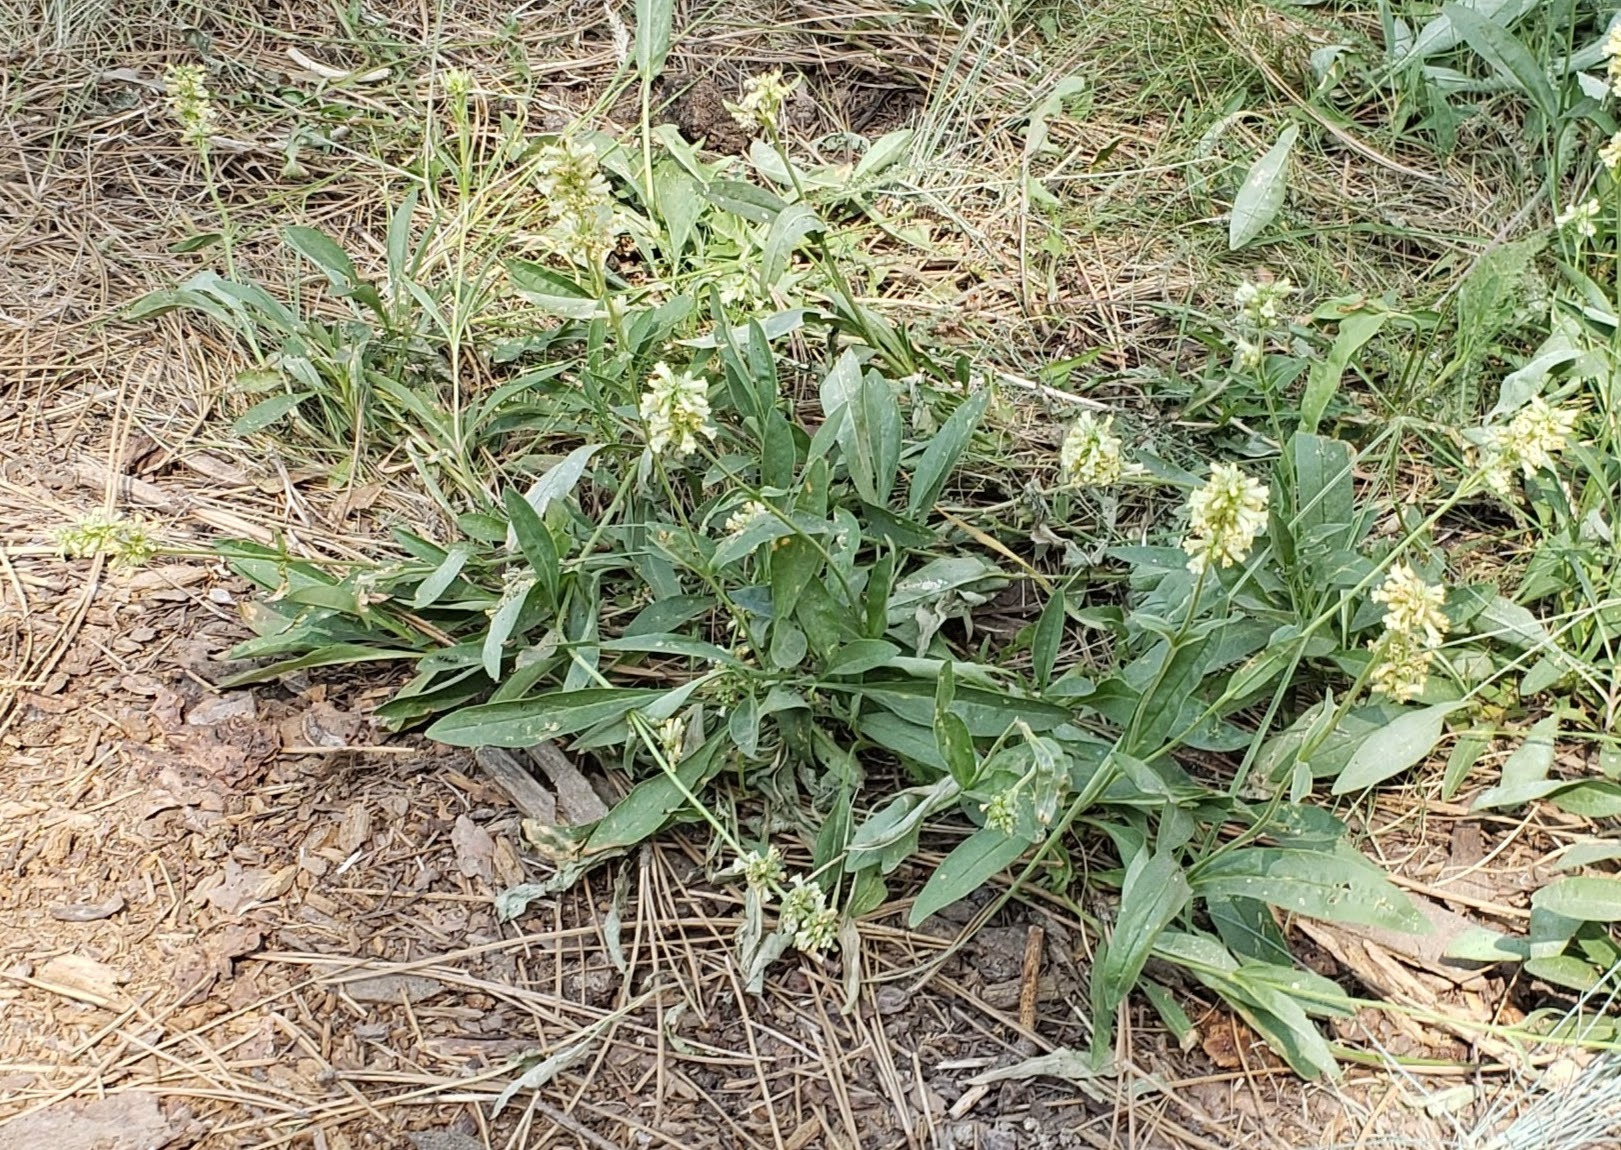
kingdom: Plantae
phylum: Tracheophyta
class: Magnoliopsida
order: Lamiales
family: Plantaginaceae
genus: Penstemon
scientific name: Penstemon confertus
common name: Lesser yellow beardtongue
